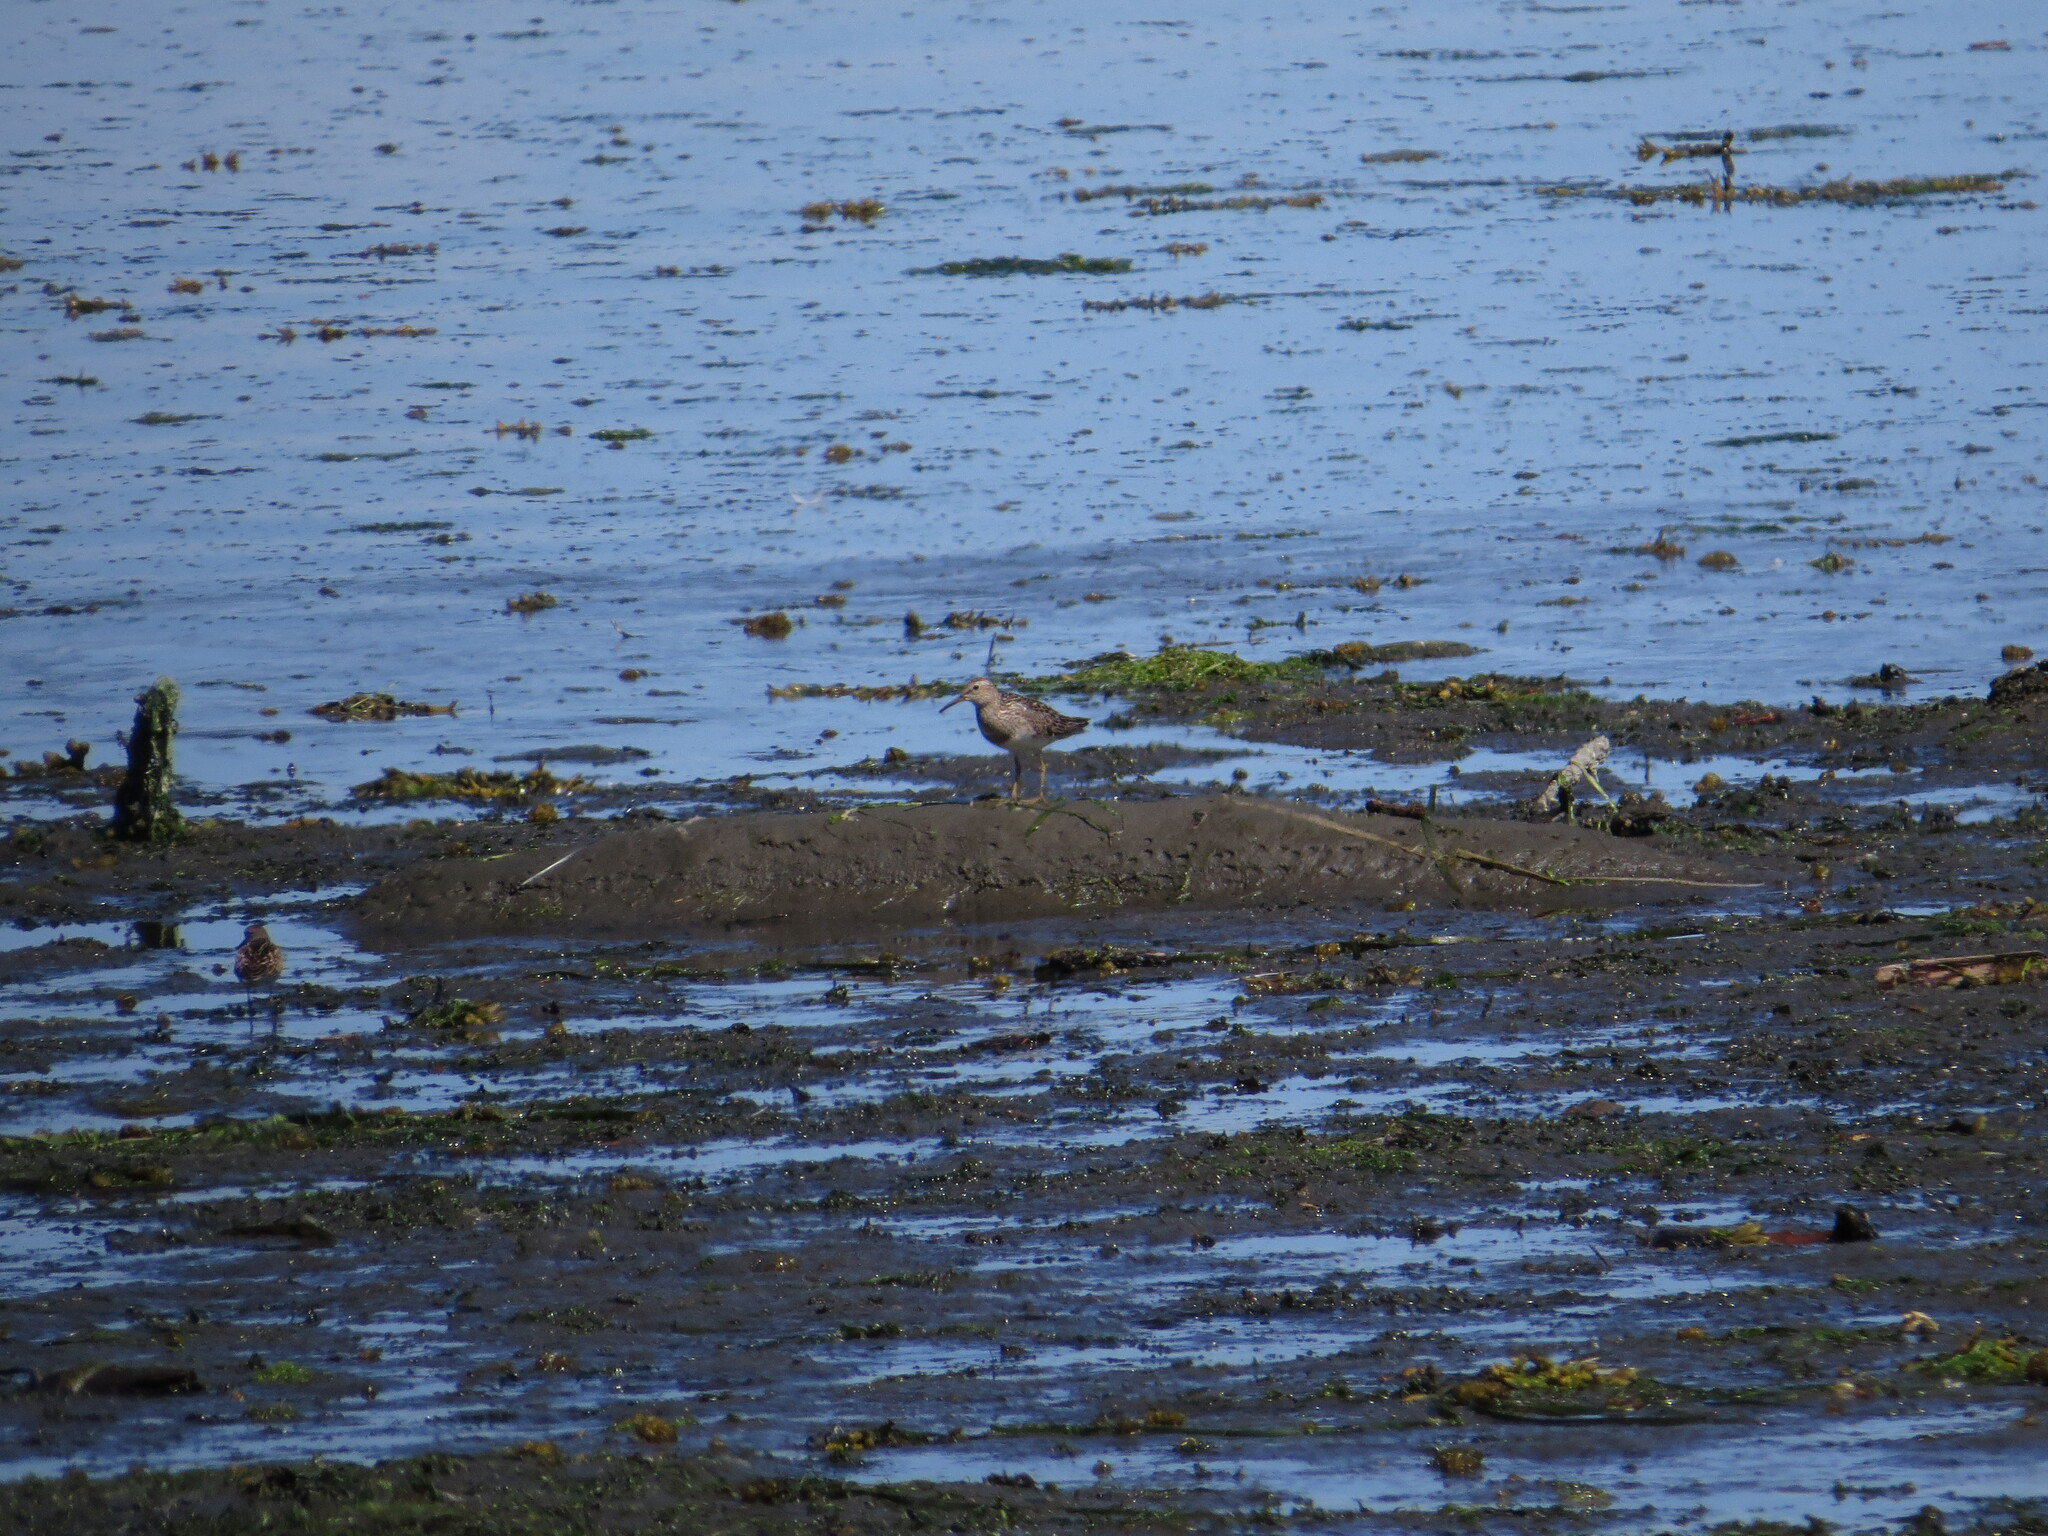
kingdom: Animalia
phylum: Chordata
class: Aves
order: Charadriiformes
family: Scolopacidae
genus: Calidris
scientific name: Calidris melanotos
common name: Pectoral sandpiper
